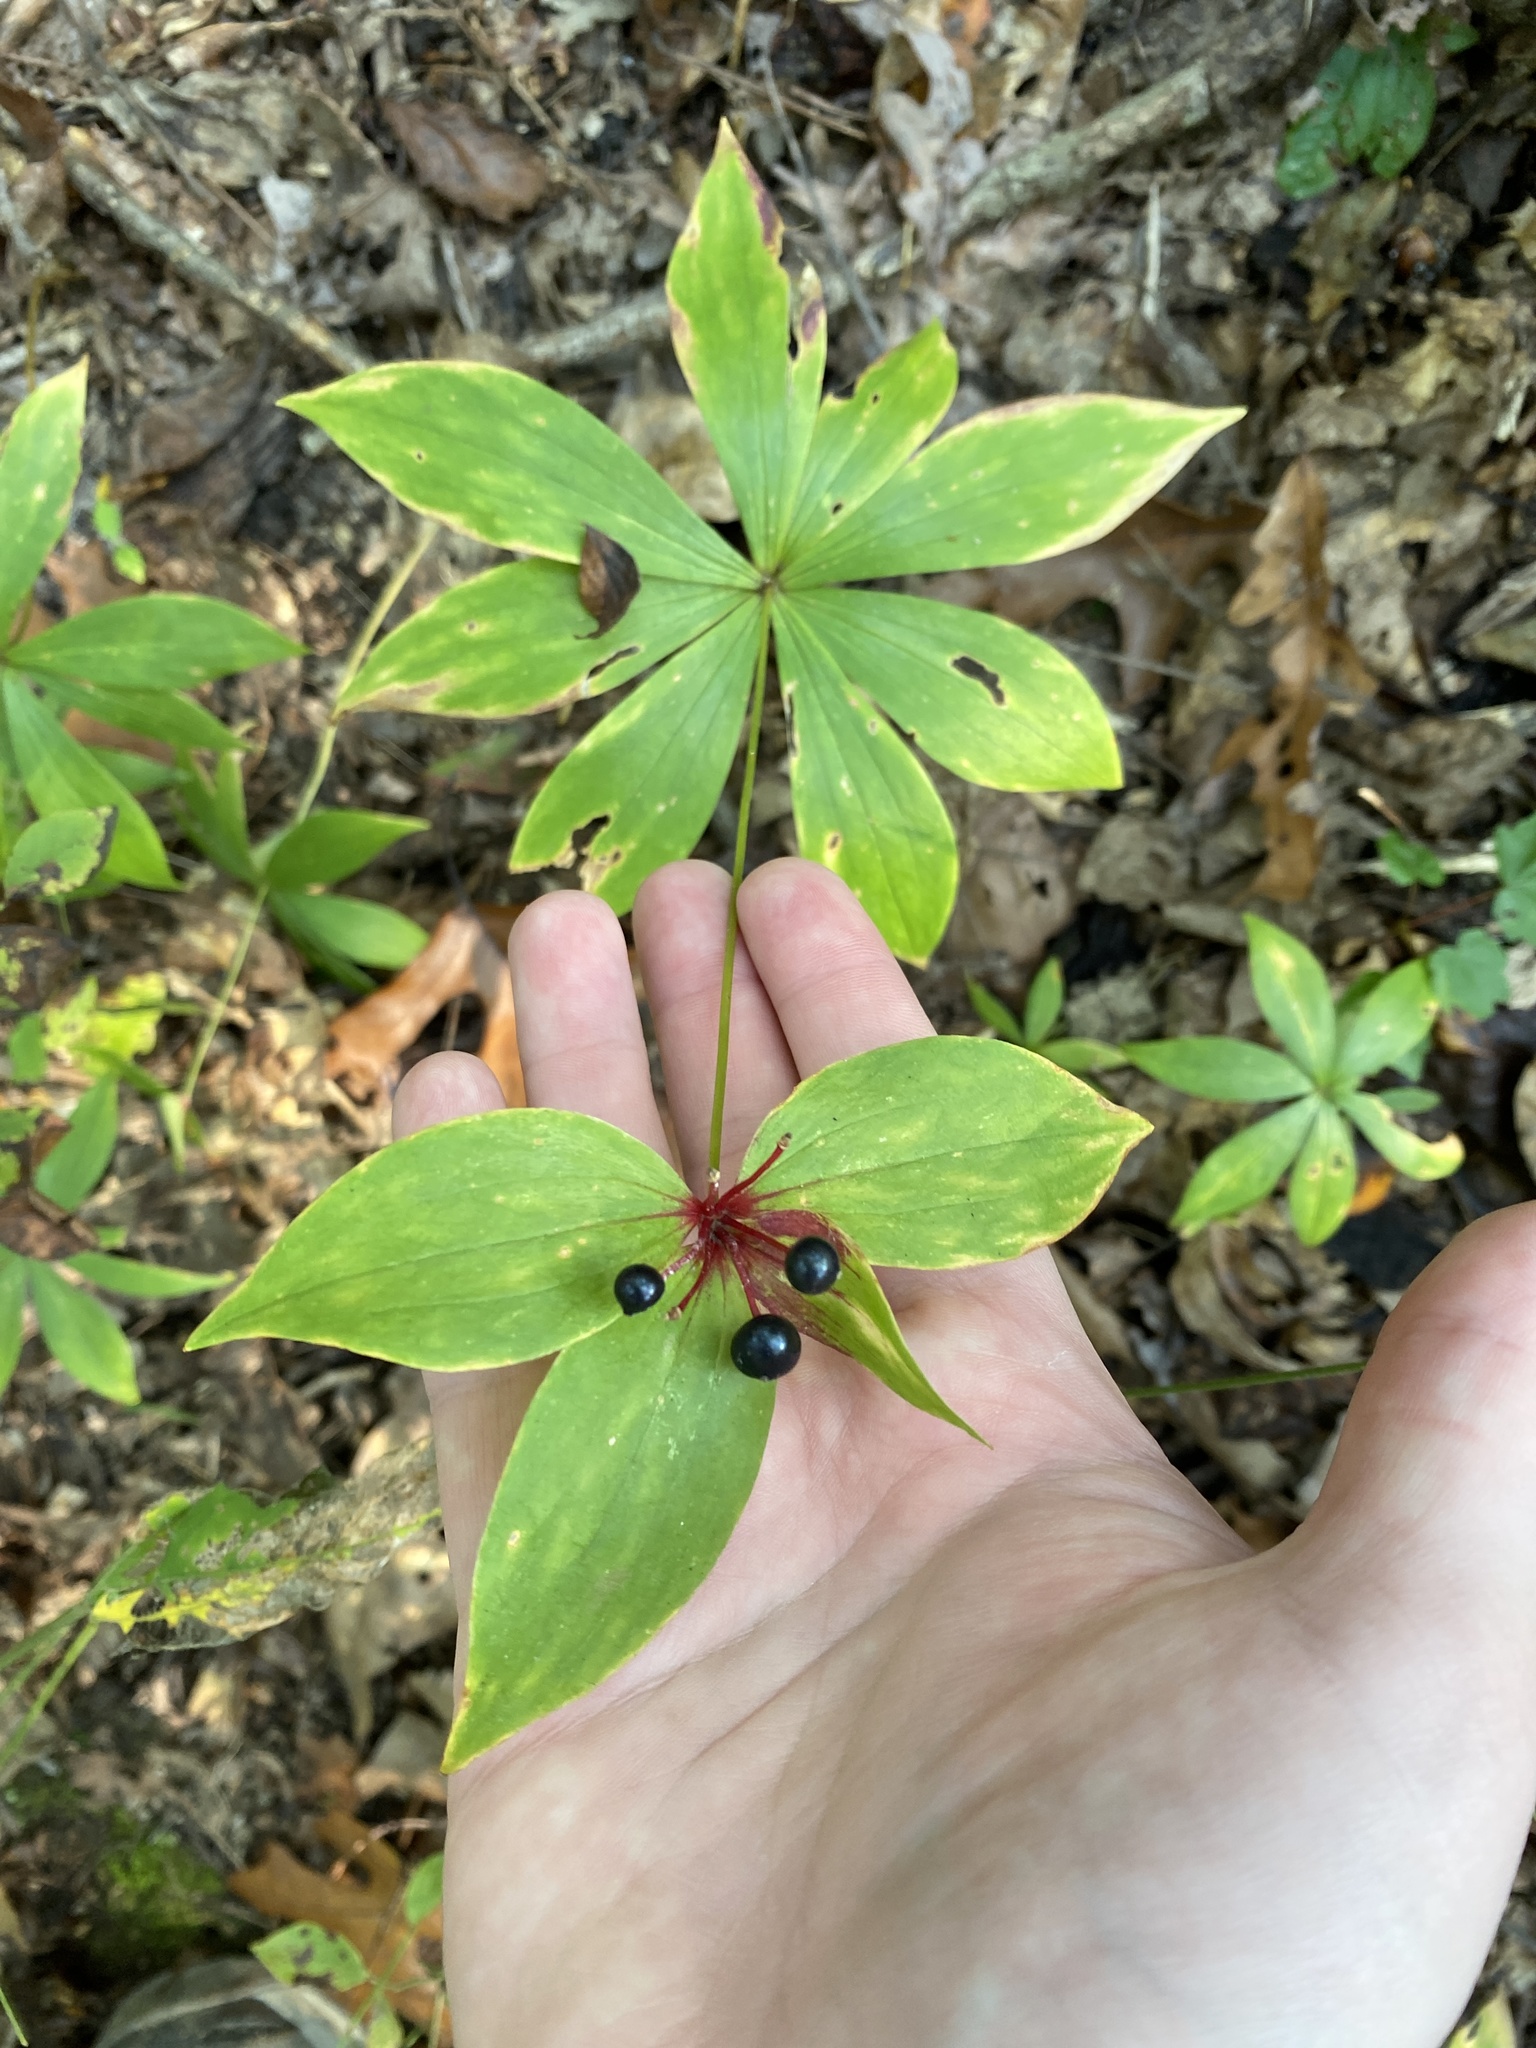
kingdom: Plantae
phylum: Tracheophyta
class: Liliopsida
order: Liliales
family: Liliaceae
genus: Medeola
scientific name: Medeola virginiana
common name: Indian cucumber-root
